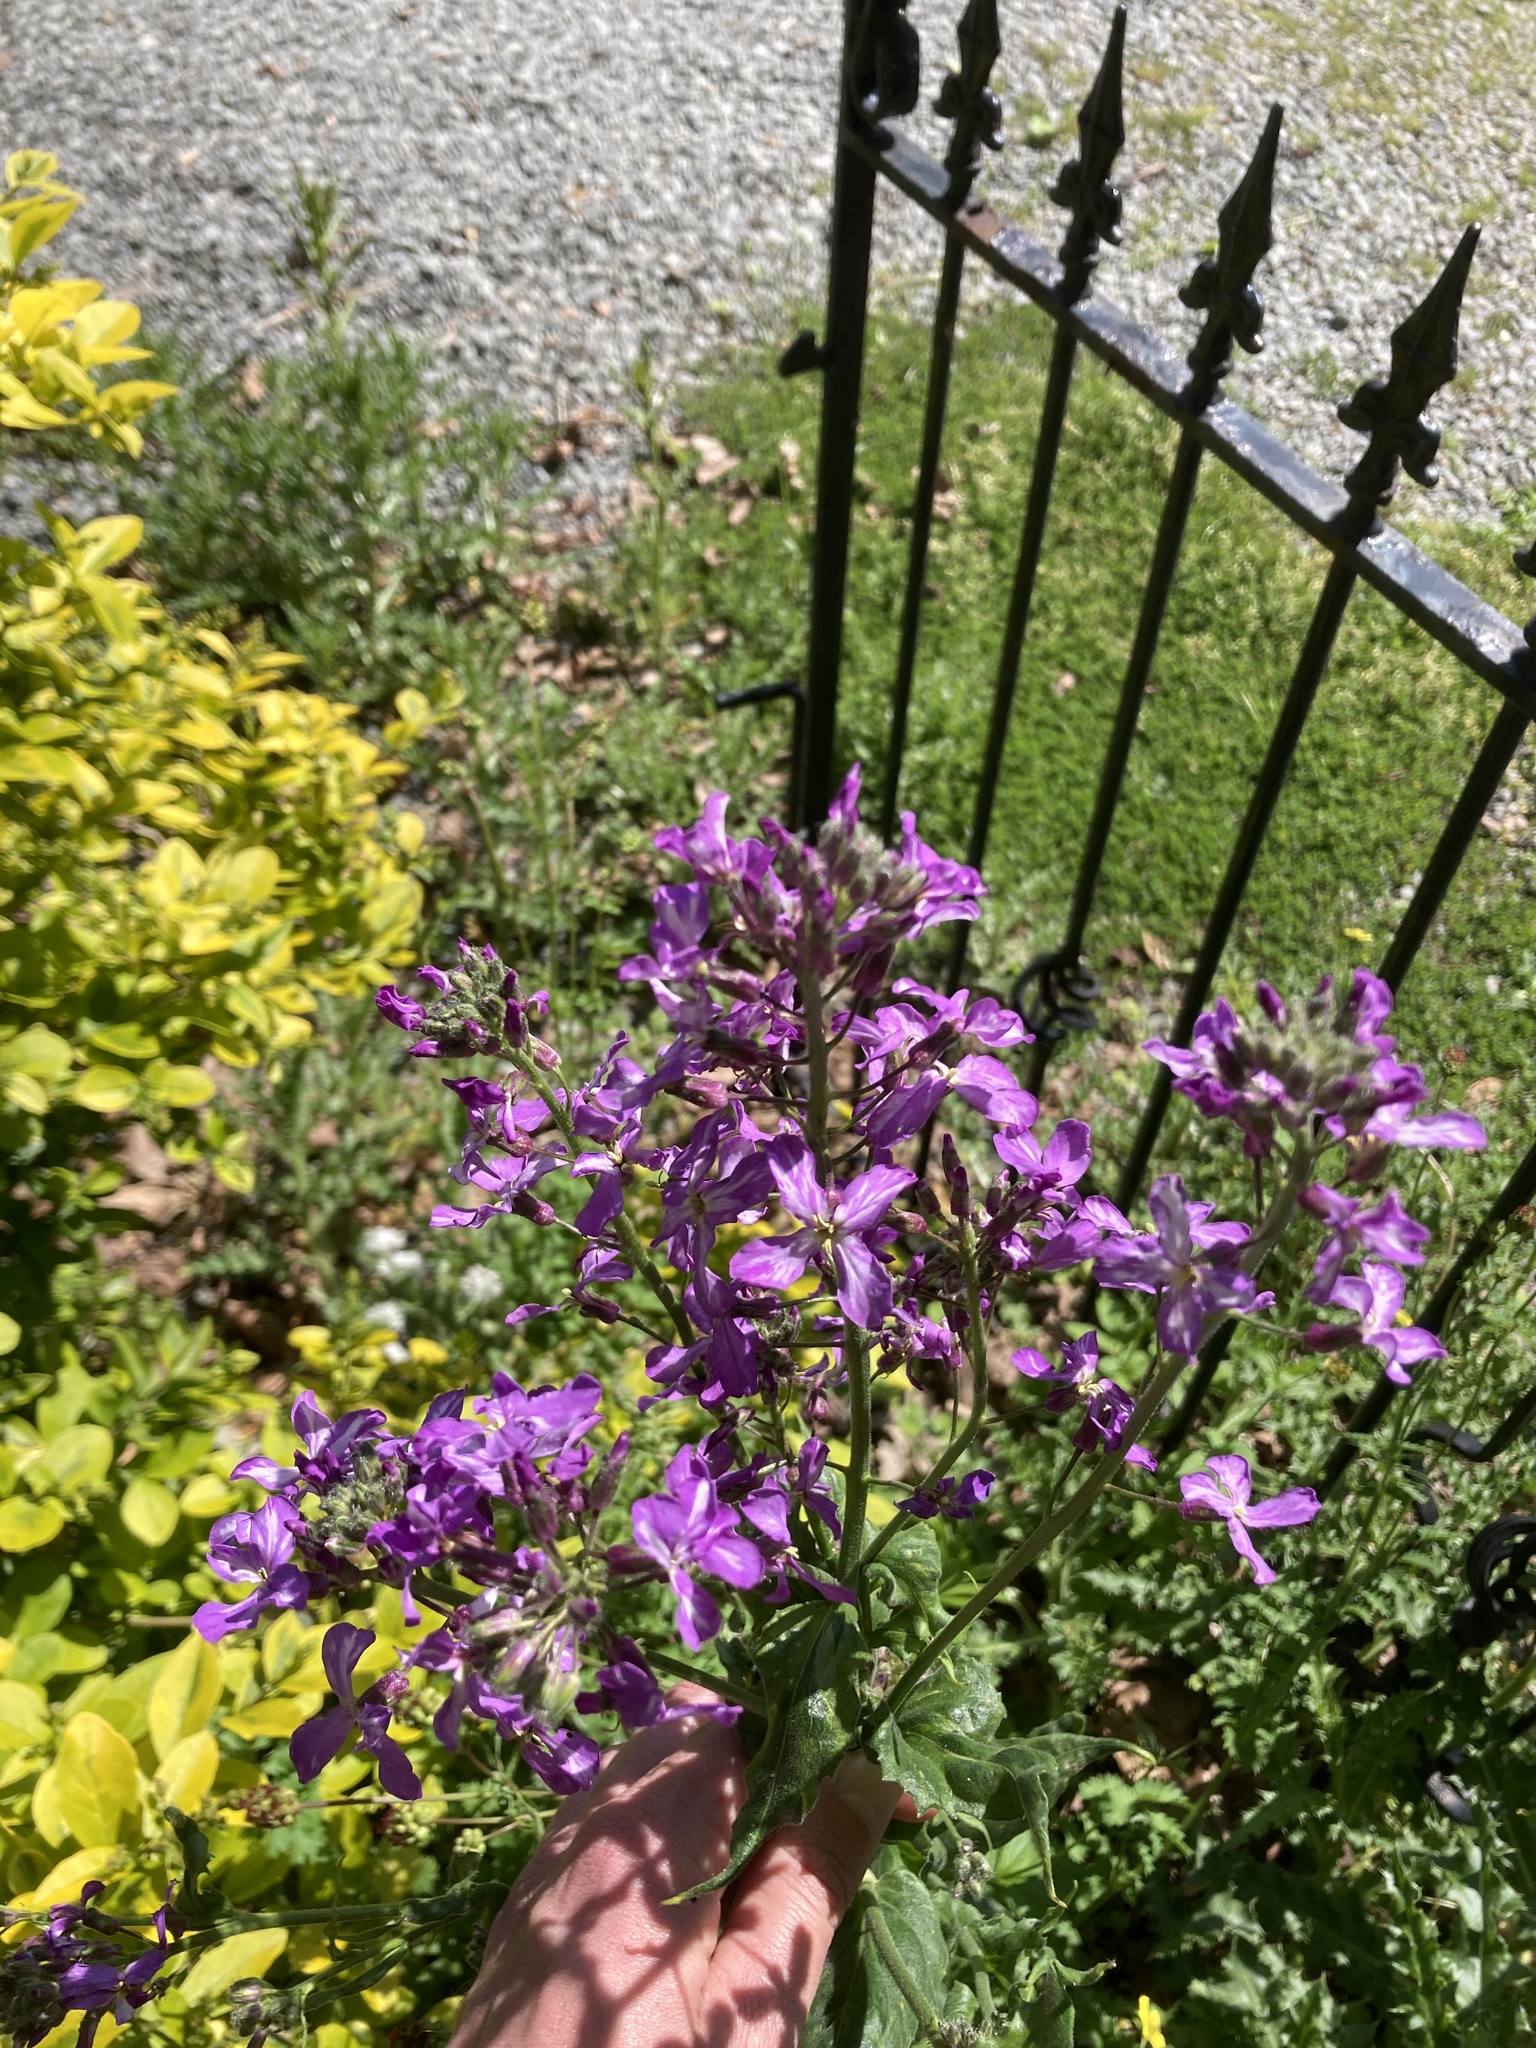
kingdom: Plantae
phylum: Tracheophyta
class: Magnoliopsida
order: Brassicales
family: Brassicaceae
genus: Lunaria
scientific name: Lunaria annua
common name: Honesty
